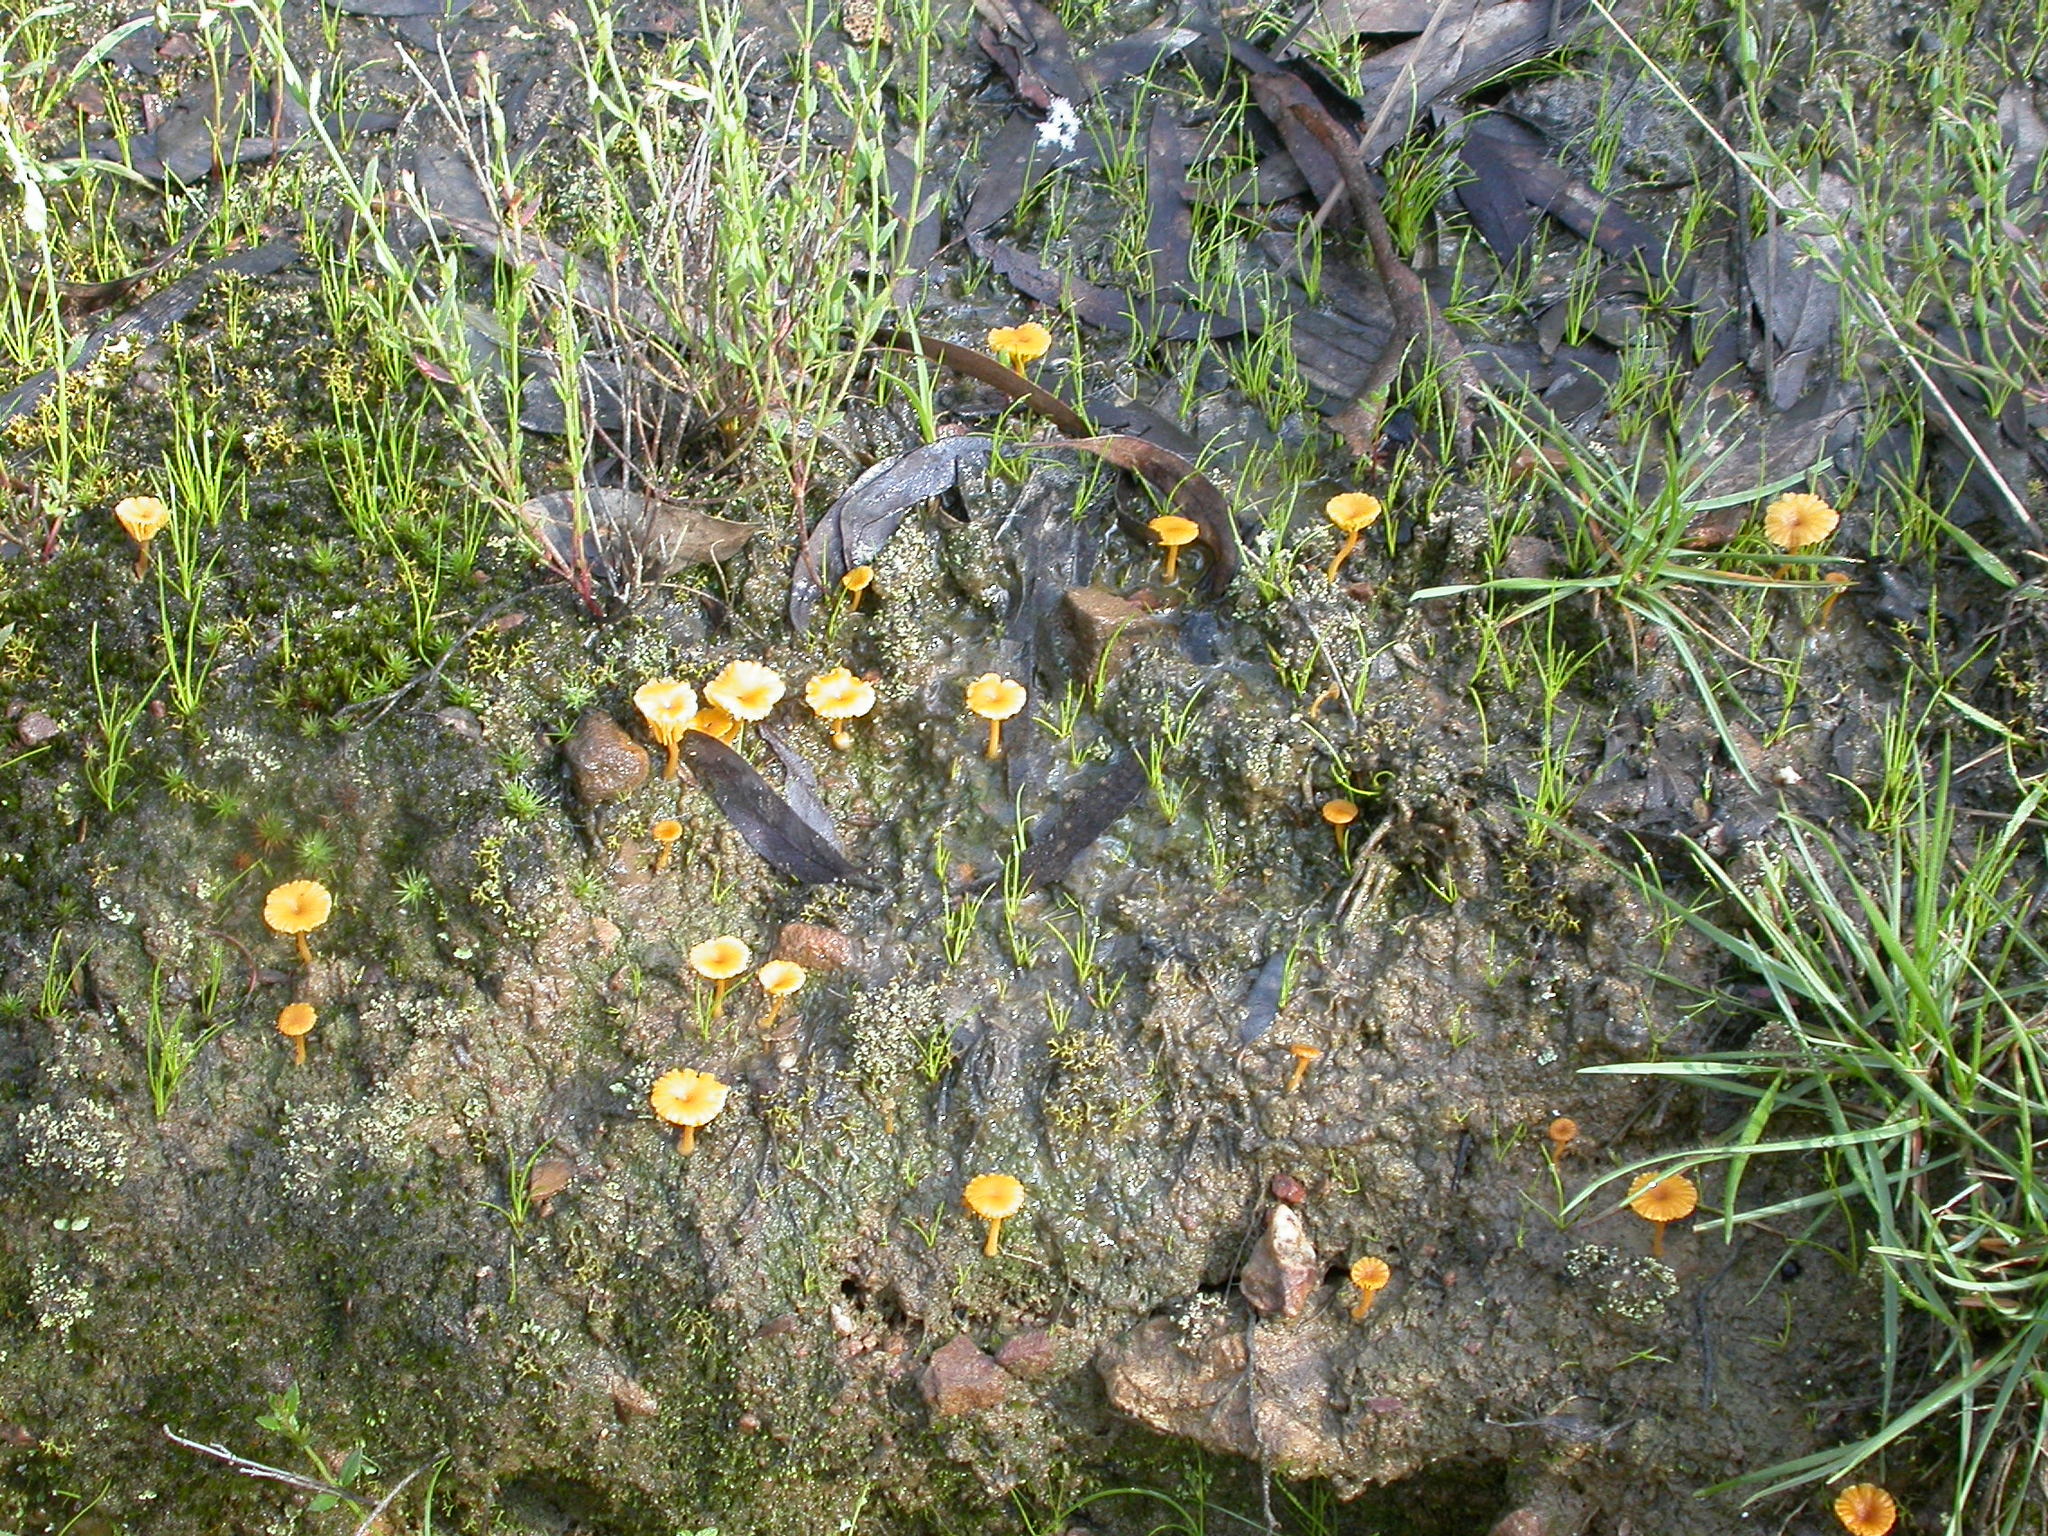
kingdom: Fungi
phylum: Basidiomycota
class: Agaricomycetes
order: Agaricales
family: Hygrophoraceae
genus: Lichenomphalia
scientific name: Lichenomphalia chromacea
